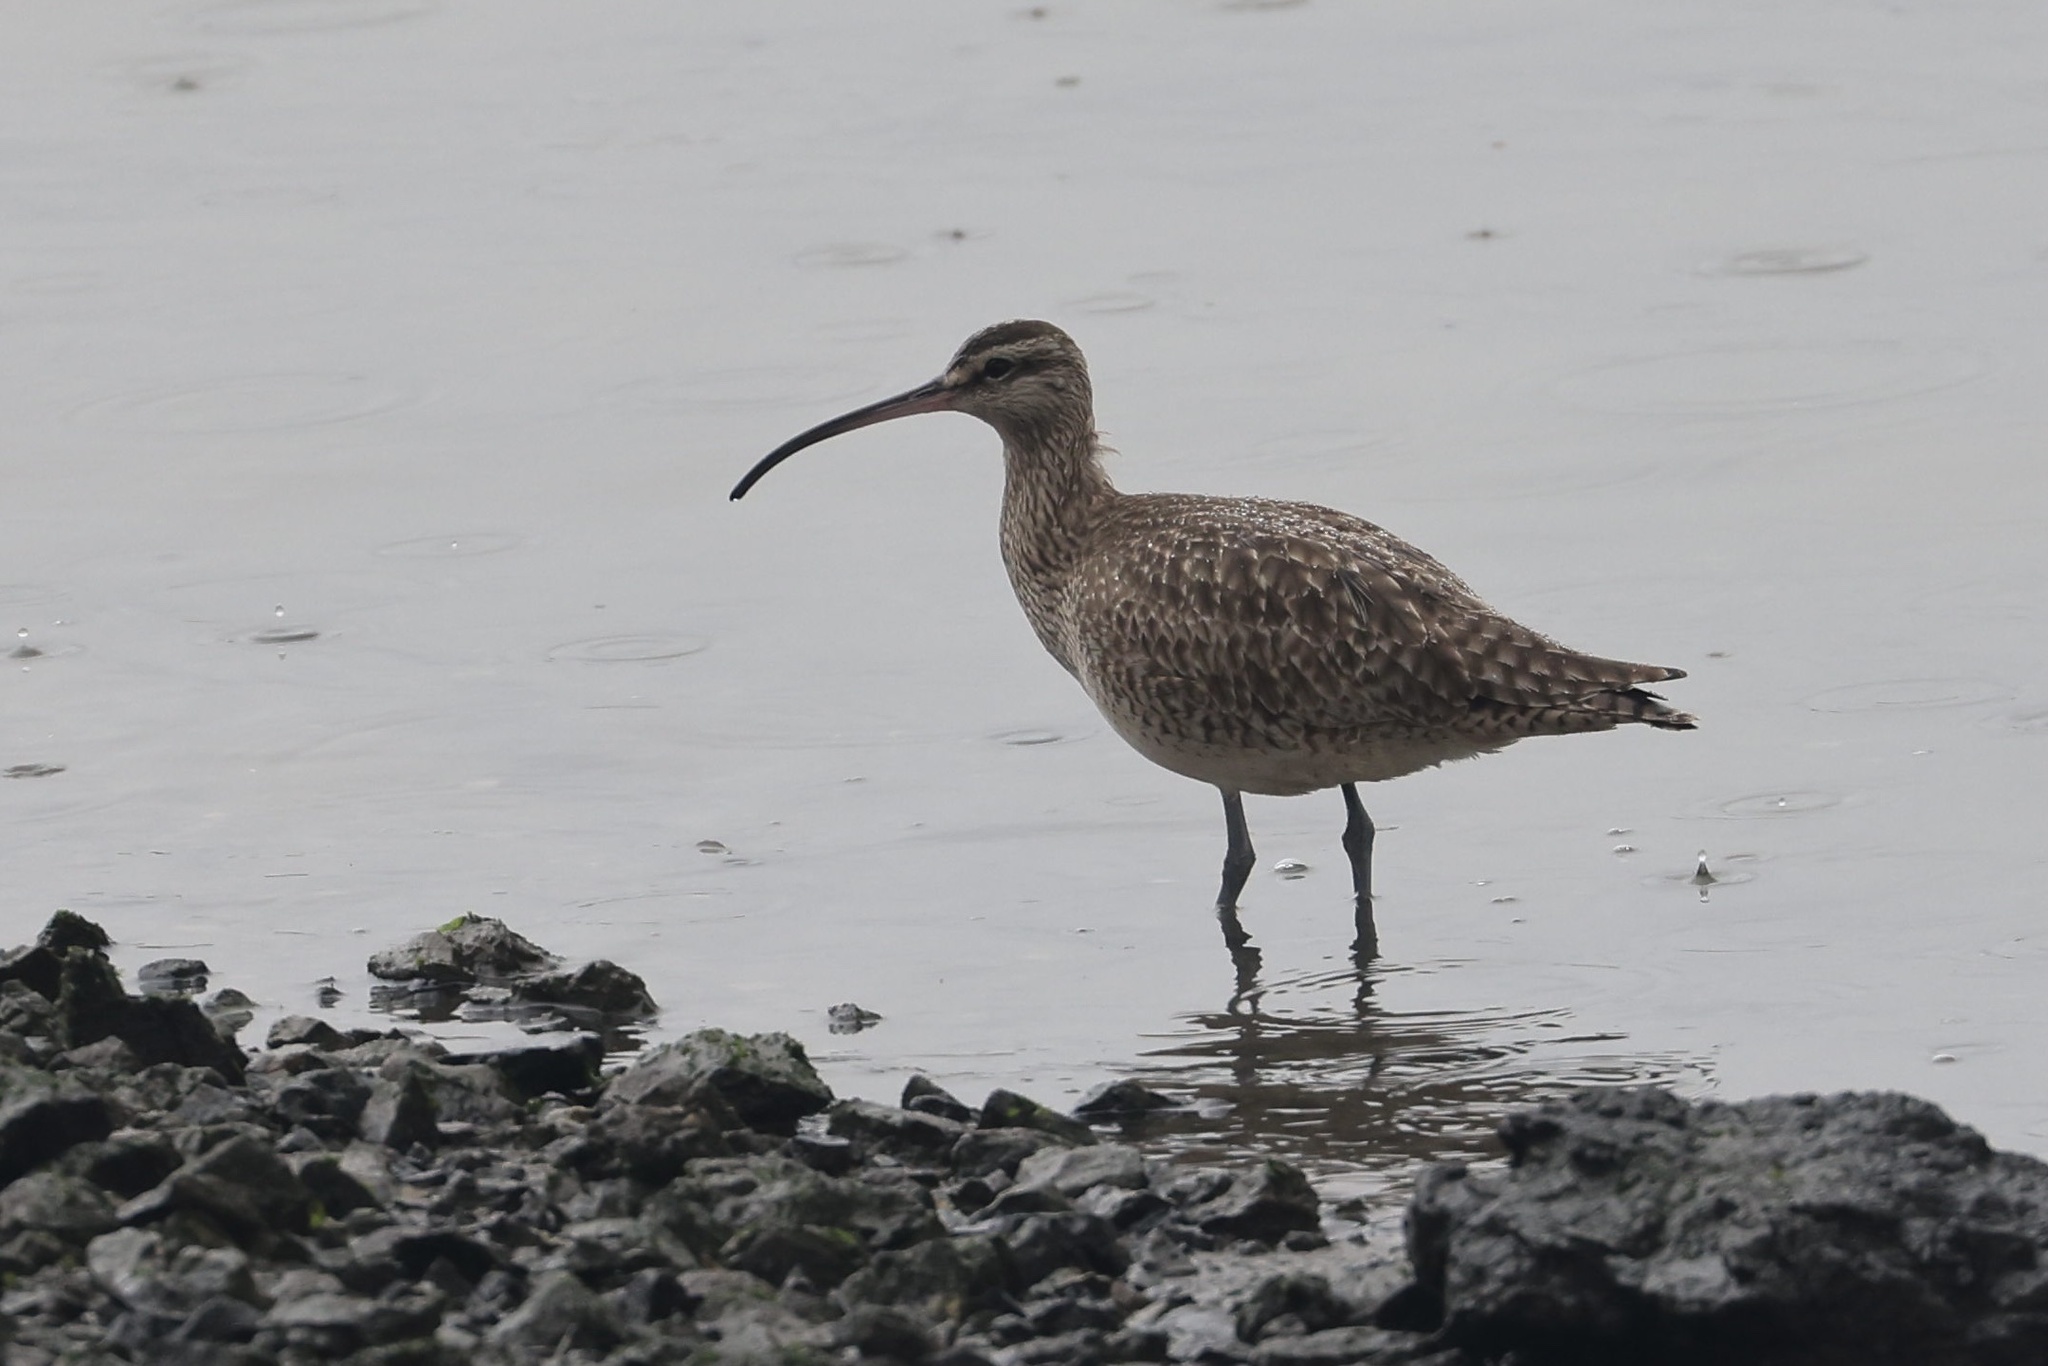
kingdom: Animalia
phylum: Chordata
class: Aves
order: Charadriiformes
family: Scolopacidae
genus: Numenius
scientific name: Numenius phaeopus
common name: Whimbrel
